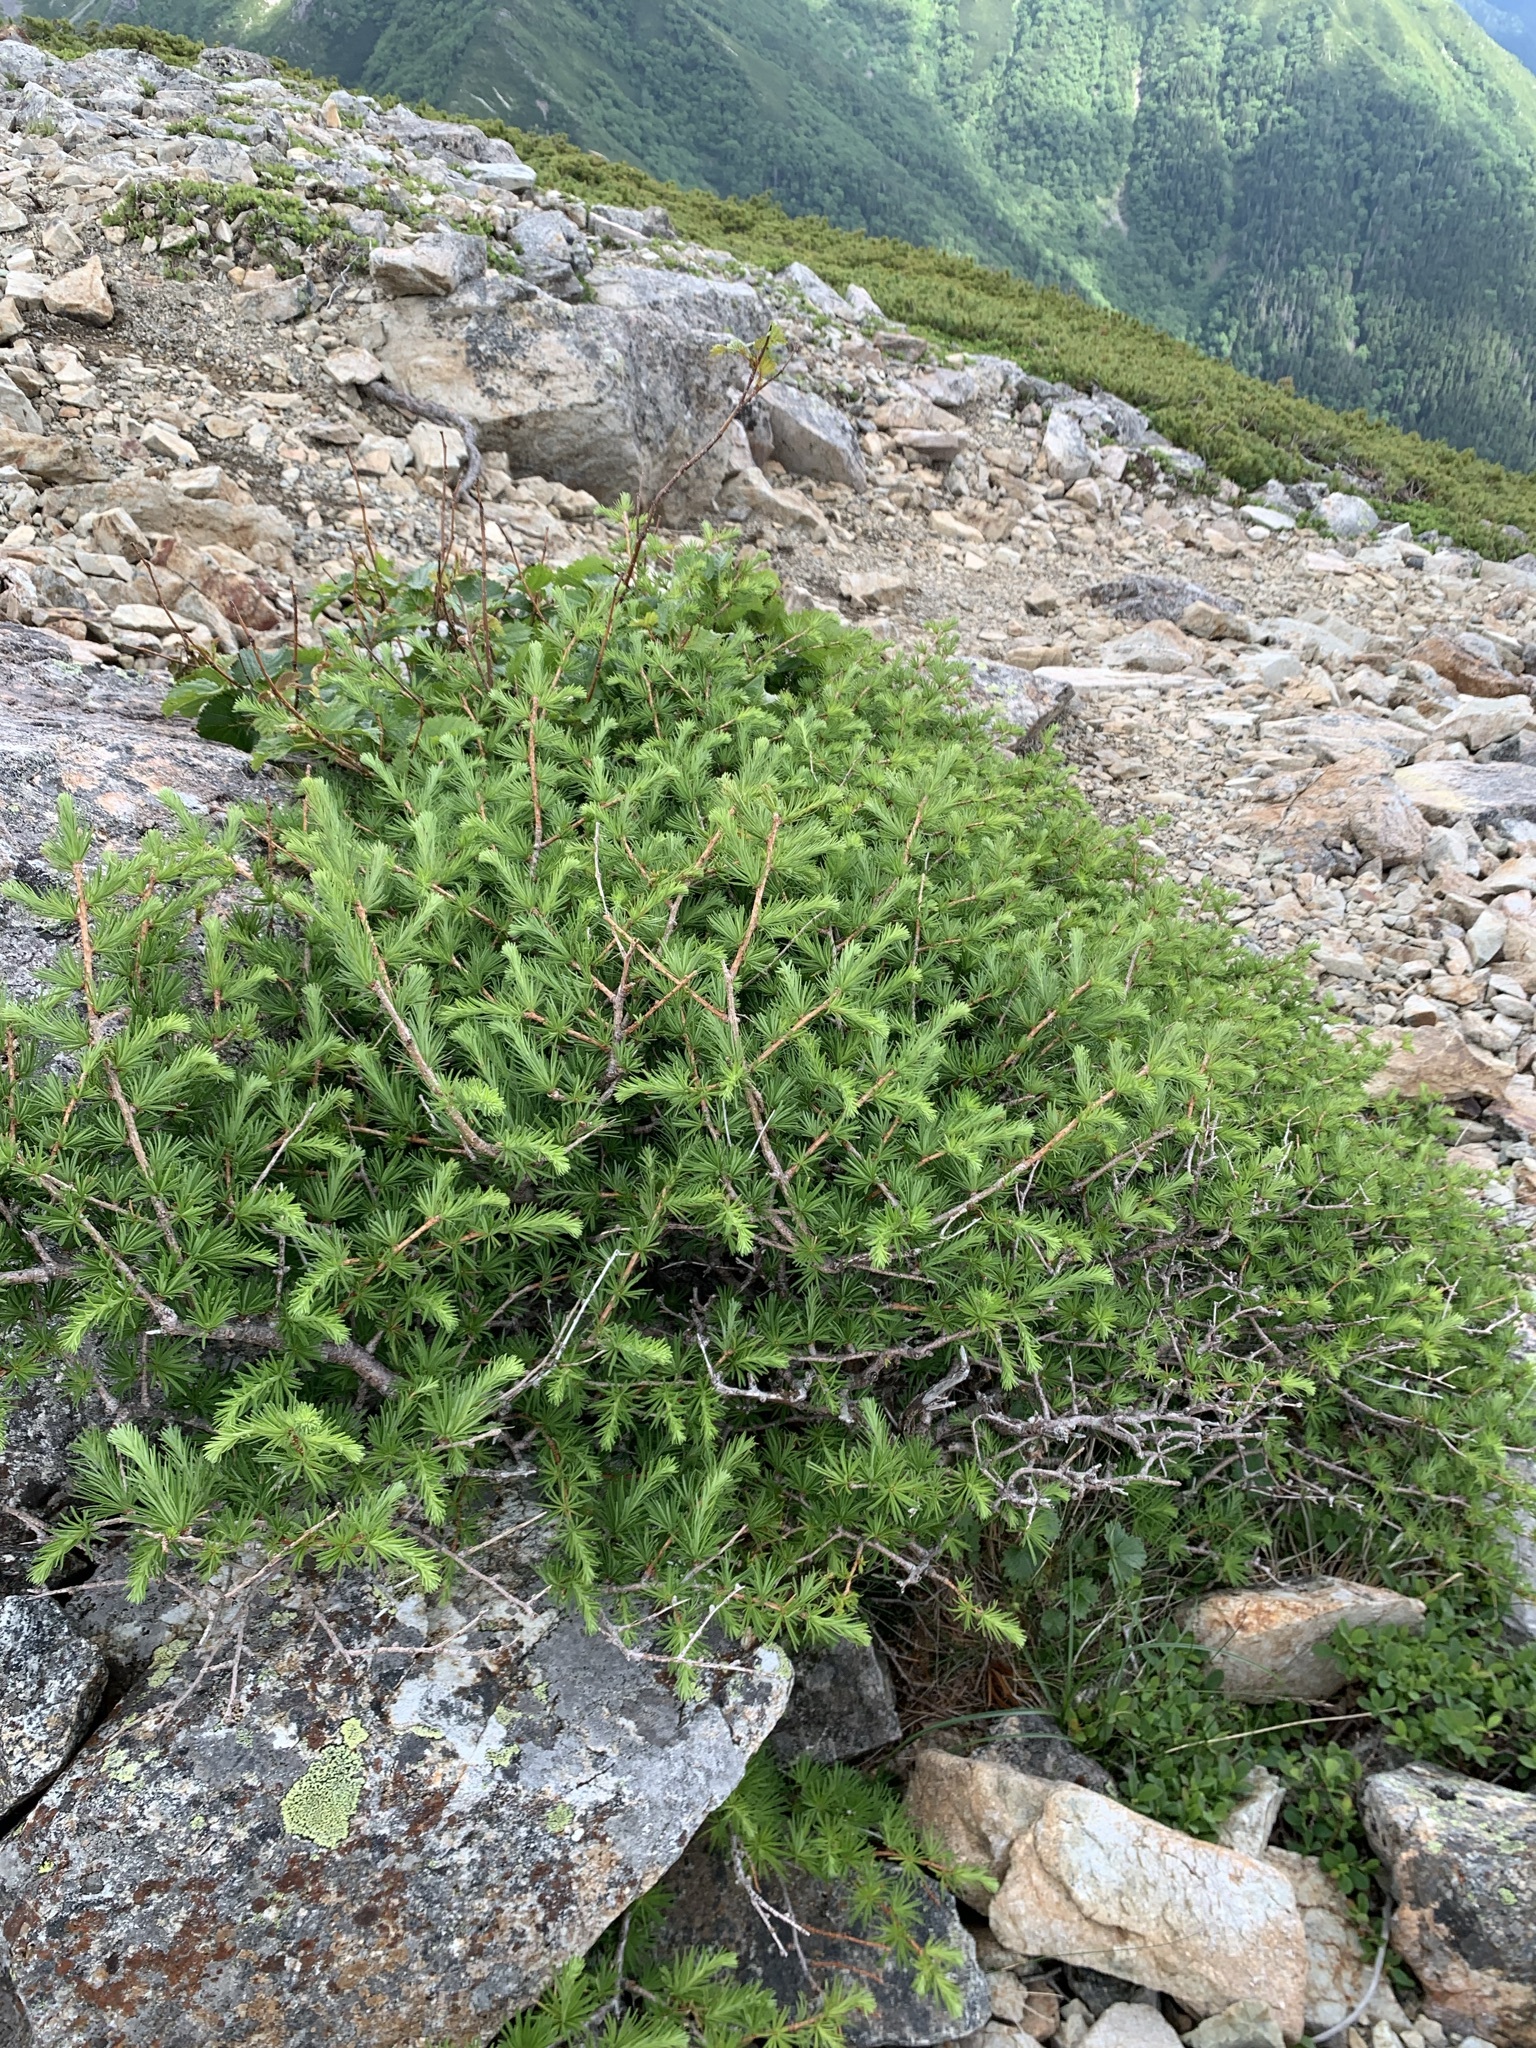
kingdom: Plantae
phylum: Tracheophyta
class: Pinopsida
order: Pinales
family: Pinaceae
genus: Larix
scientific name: Larix kaempferi
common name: Japanese larch
